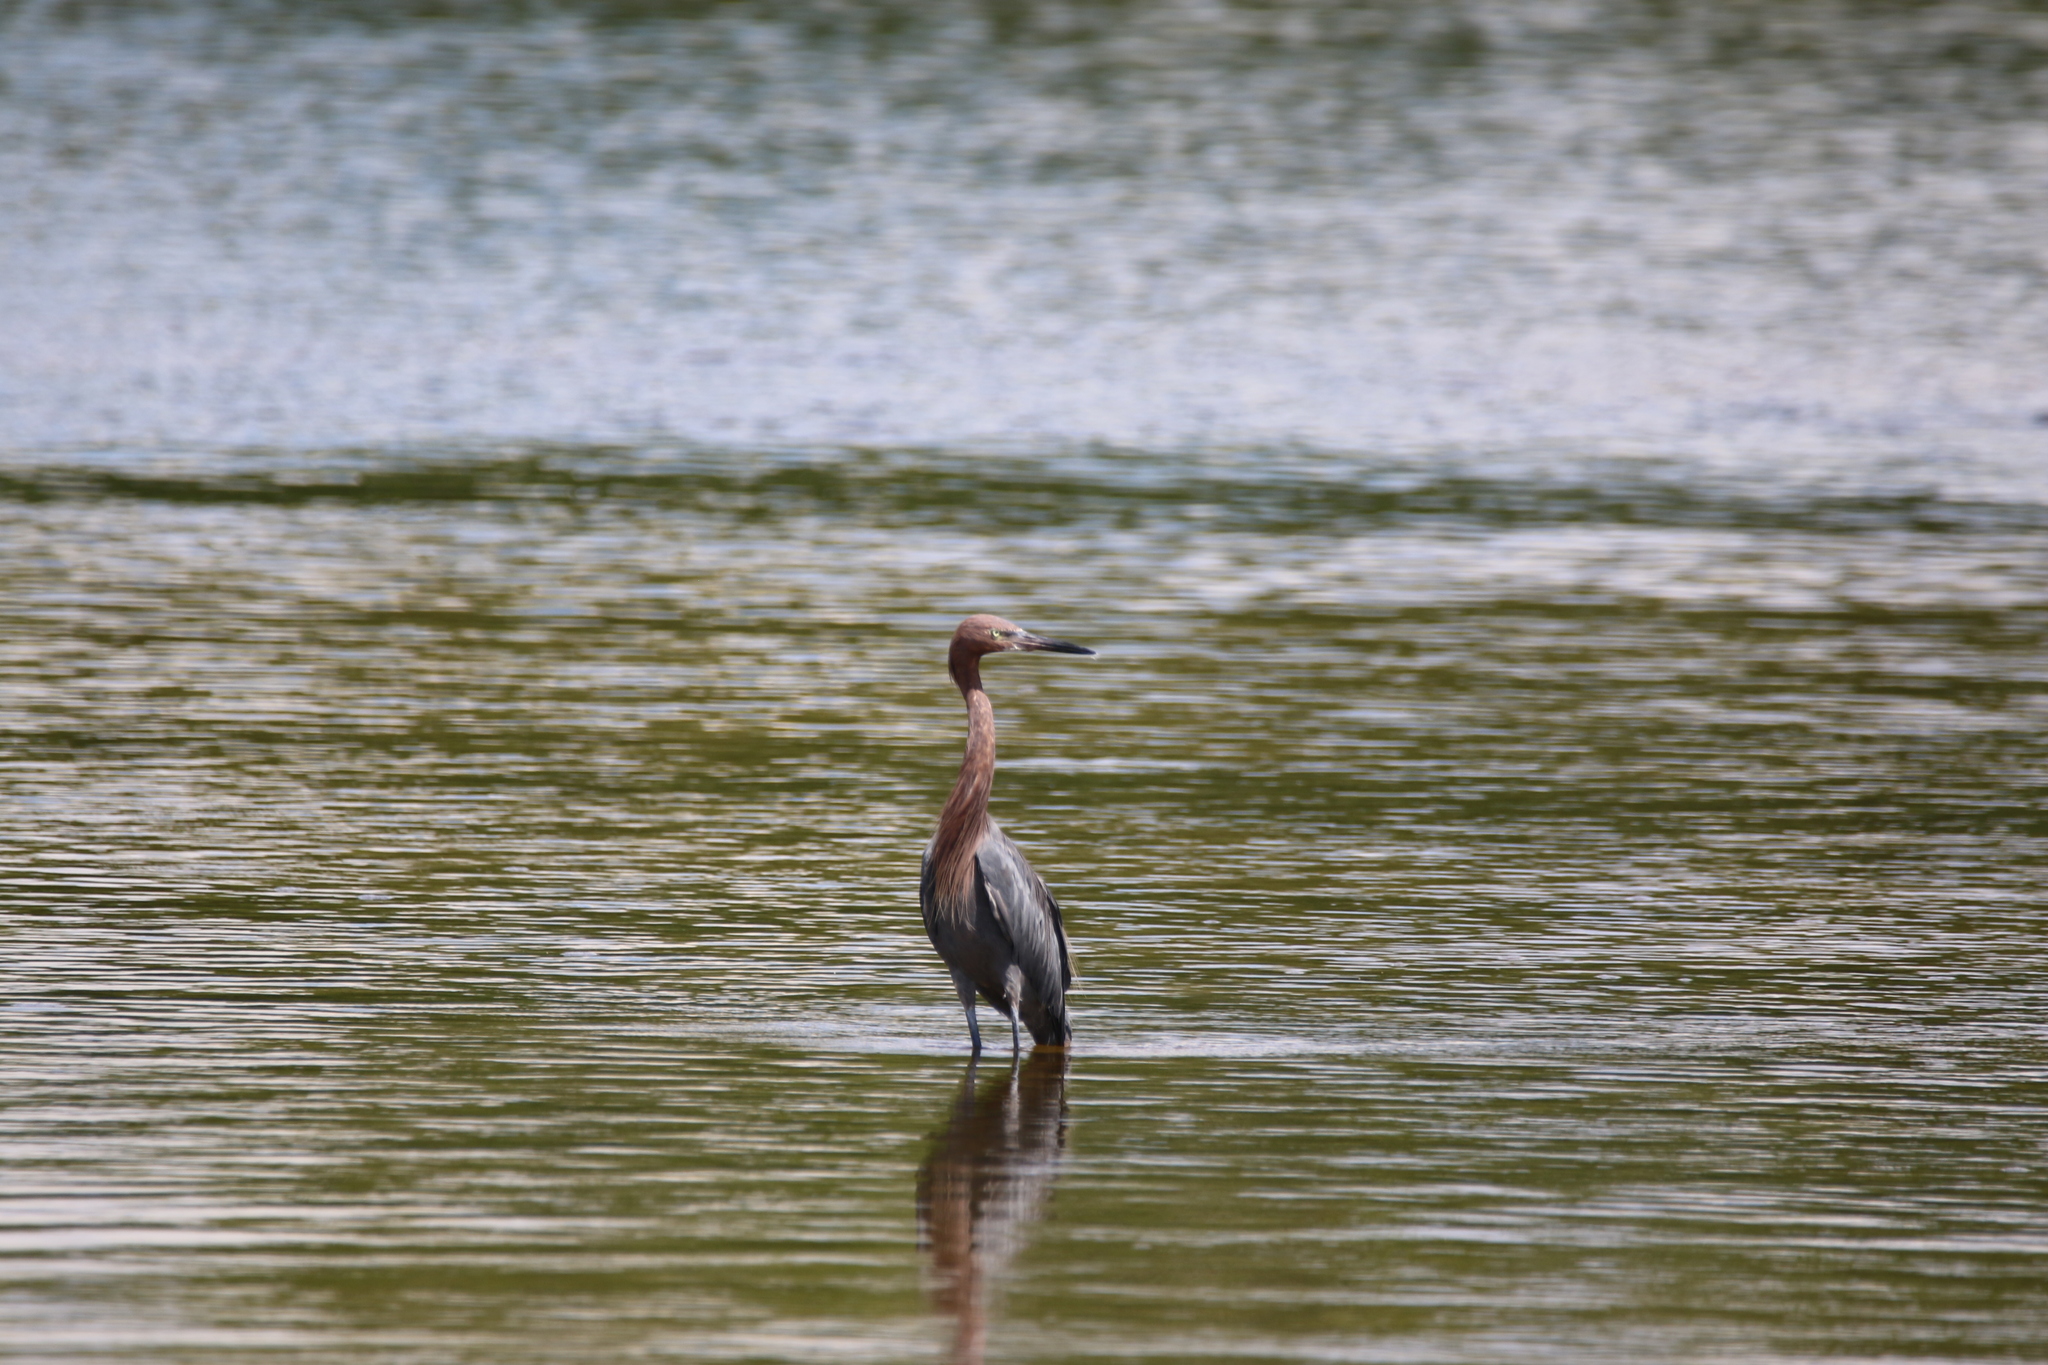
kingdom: Animalia
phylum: Chordata
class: Aves
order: Pelecaniformes
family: Ardeidae
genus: Egretta
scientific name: Egretta rufescens
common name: Reddish egret
